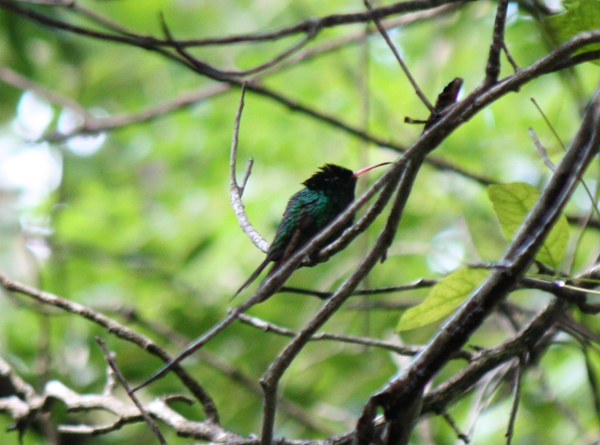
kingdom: Animalia
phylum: Chordata
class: Aves
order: Apodiformes
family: Trochilidae
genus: Trochilus
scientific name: Trochilus polytmus
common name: Red-billed streamertail
